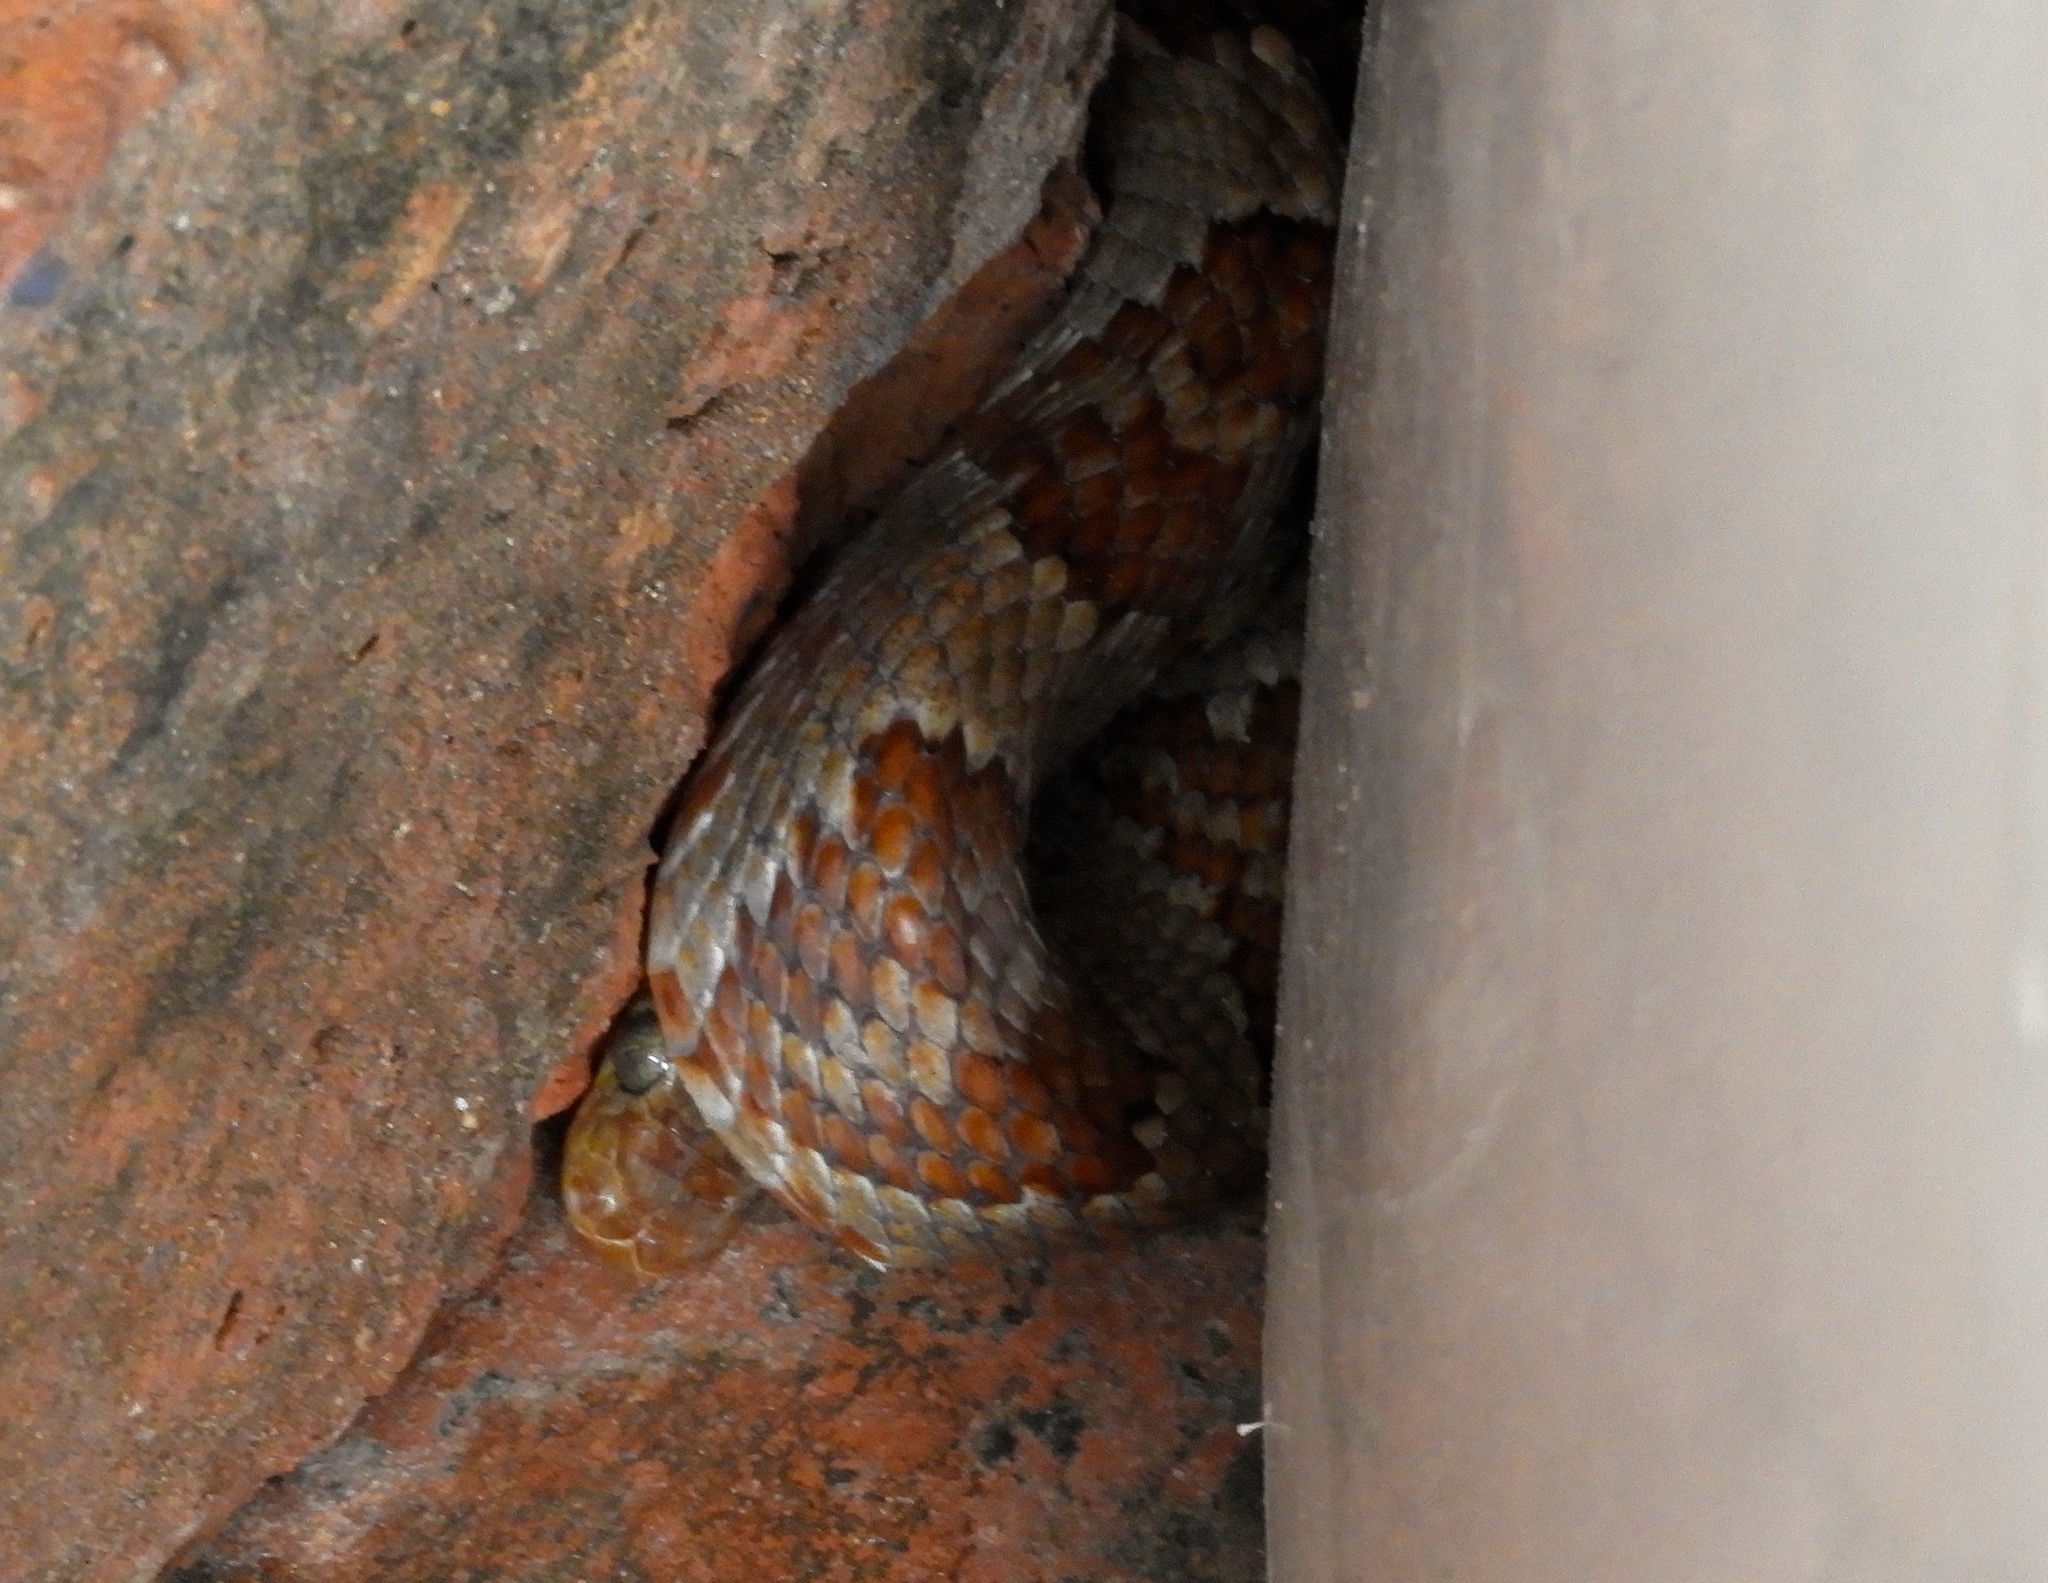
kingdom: Animalia
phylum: Chordata
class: Squamata
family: Colubridae
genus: Trimorphodon
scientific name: Trimorphodon paucimaculatus
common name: Sinaloan lyresnake
